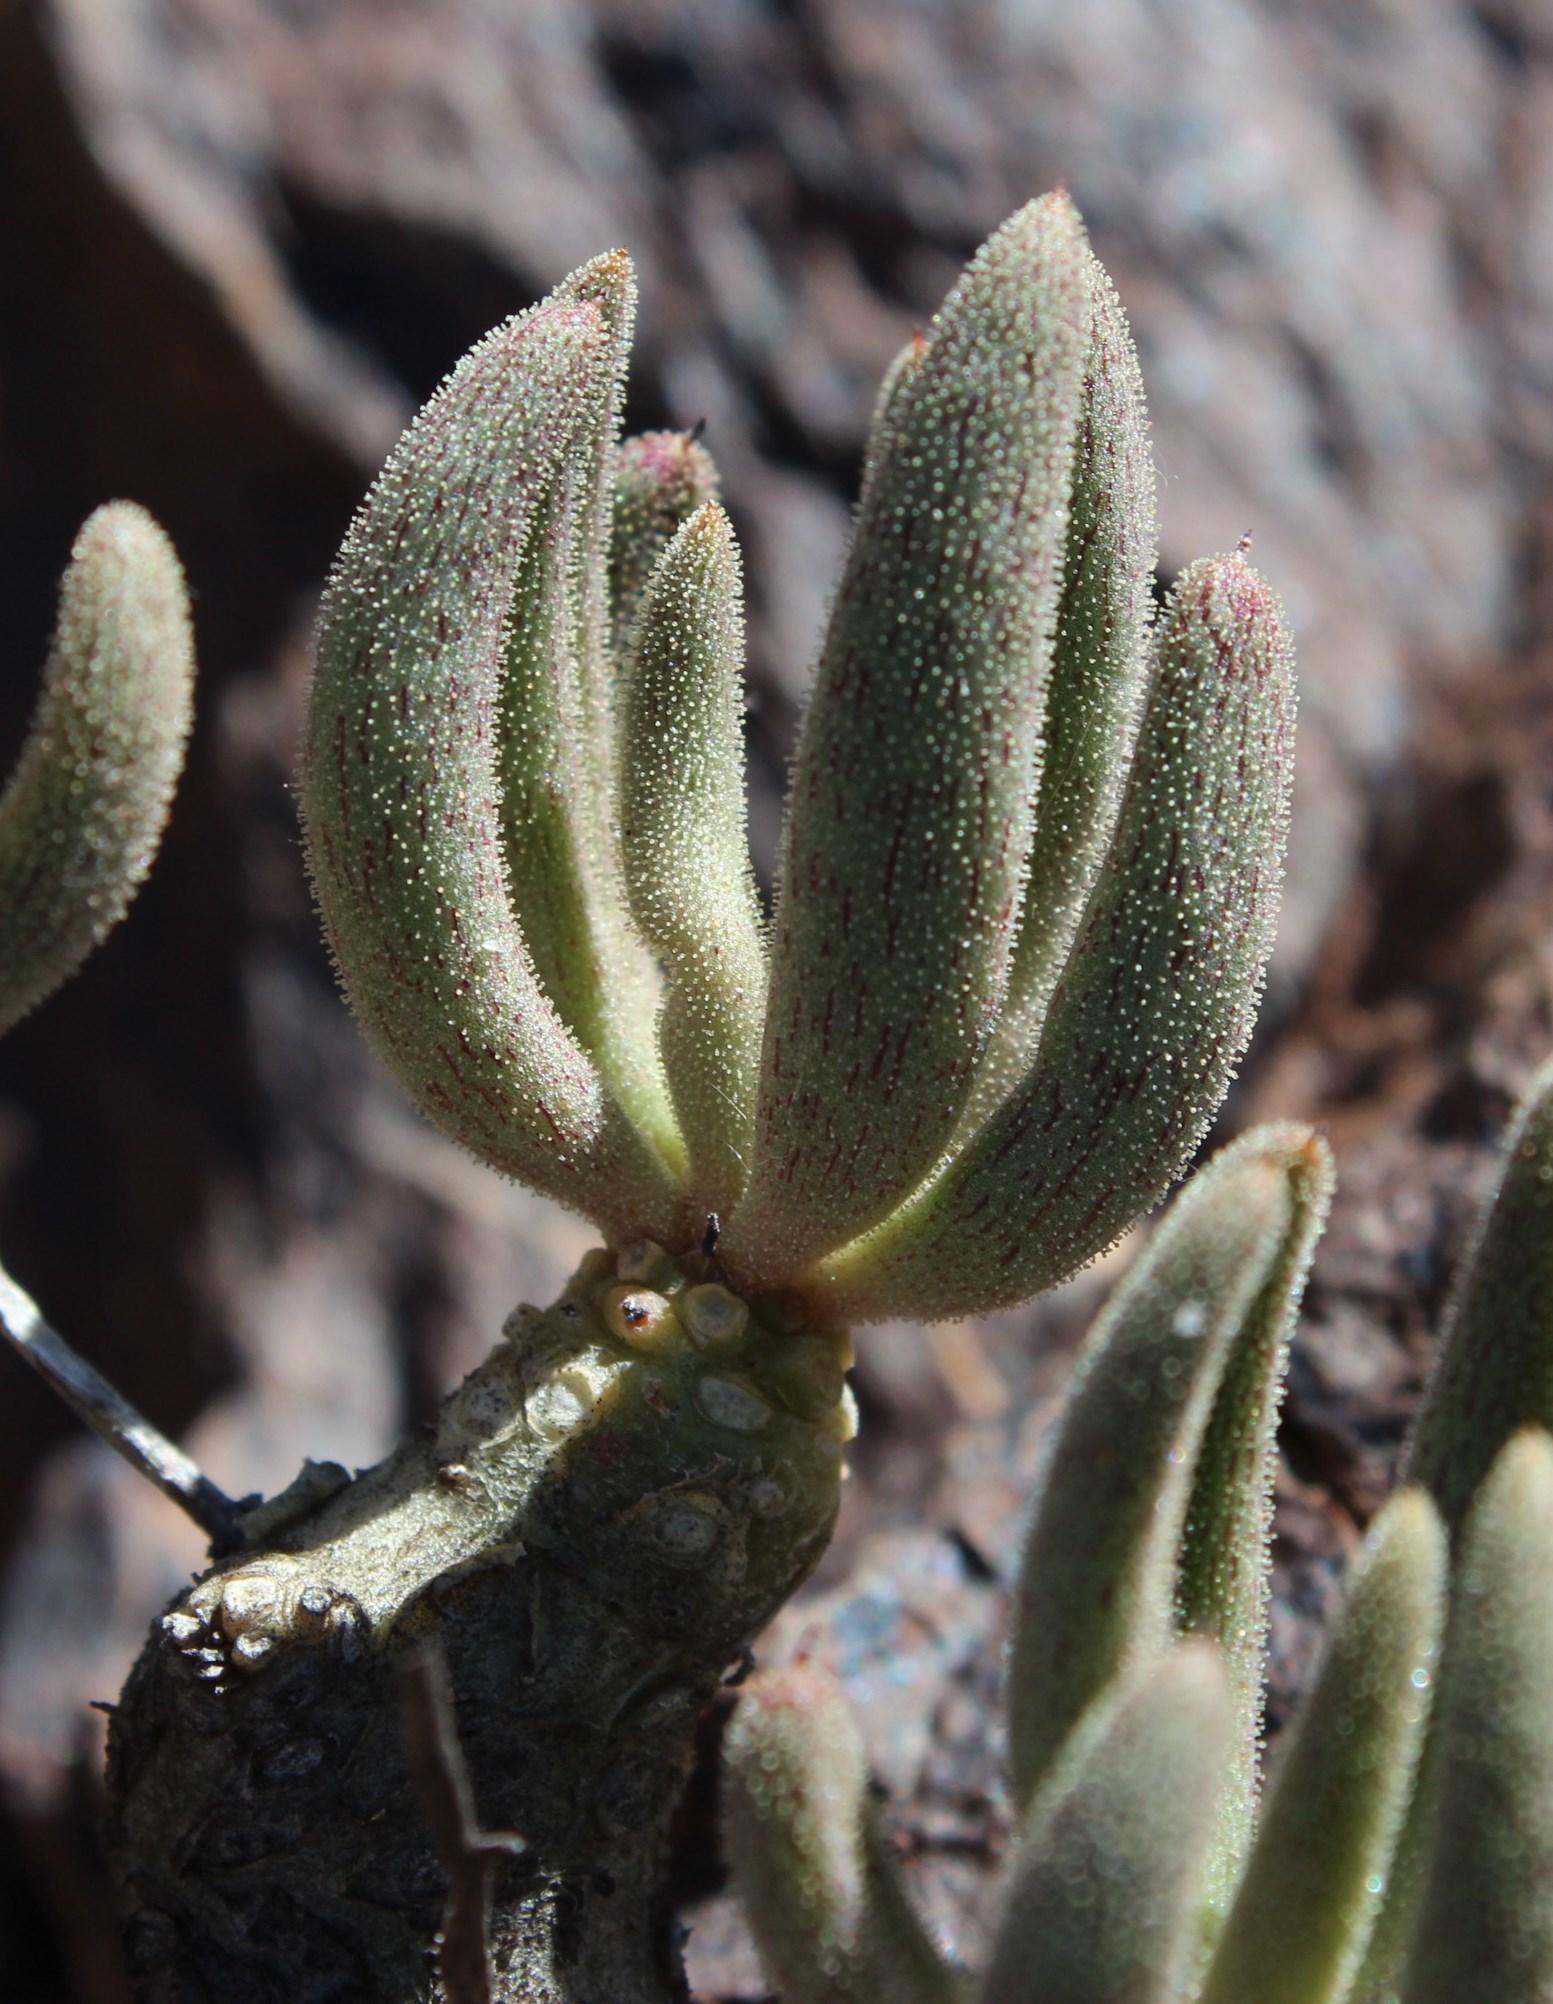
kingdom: Plantae
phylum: Tracheophyta
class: Magnoliopsida
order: Saxifragales
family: Crassulaceae
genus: Tylecodon
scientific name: Tylecodon rubrovenosus
